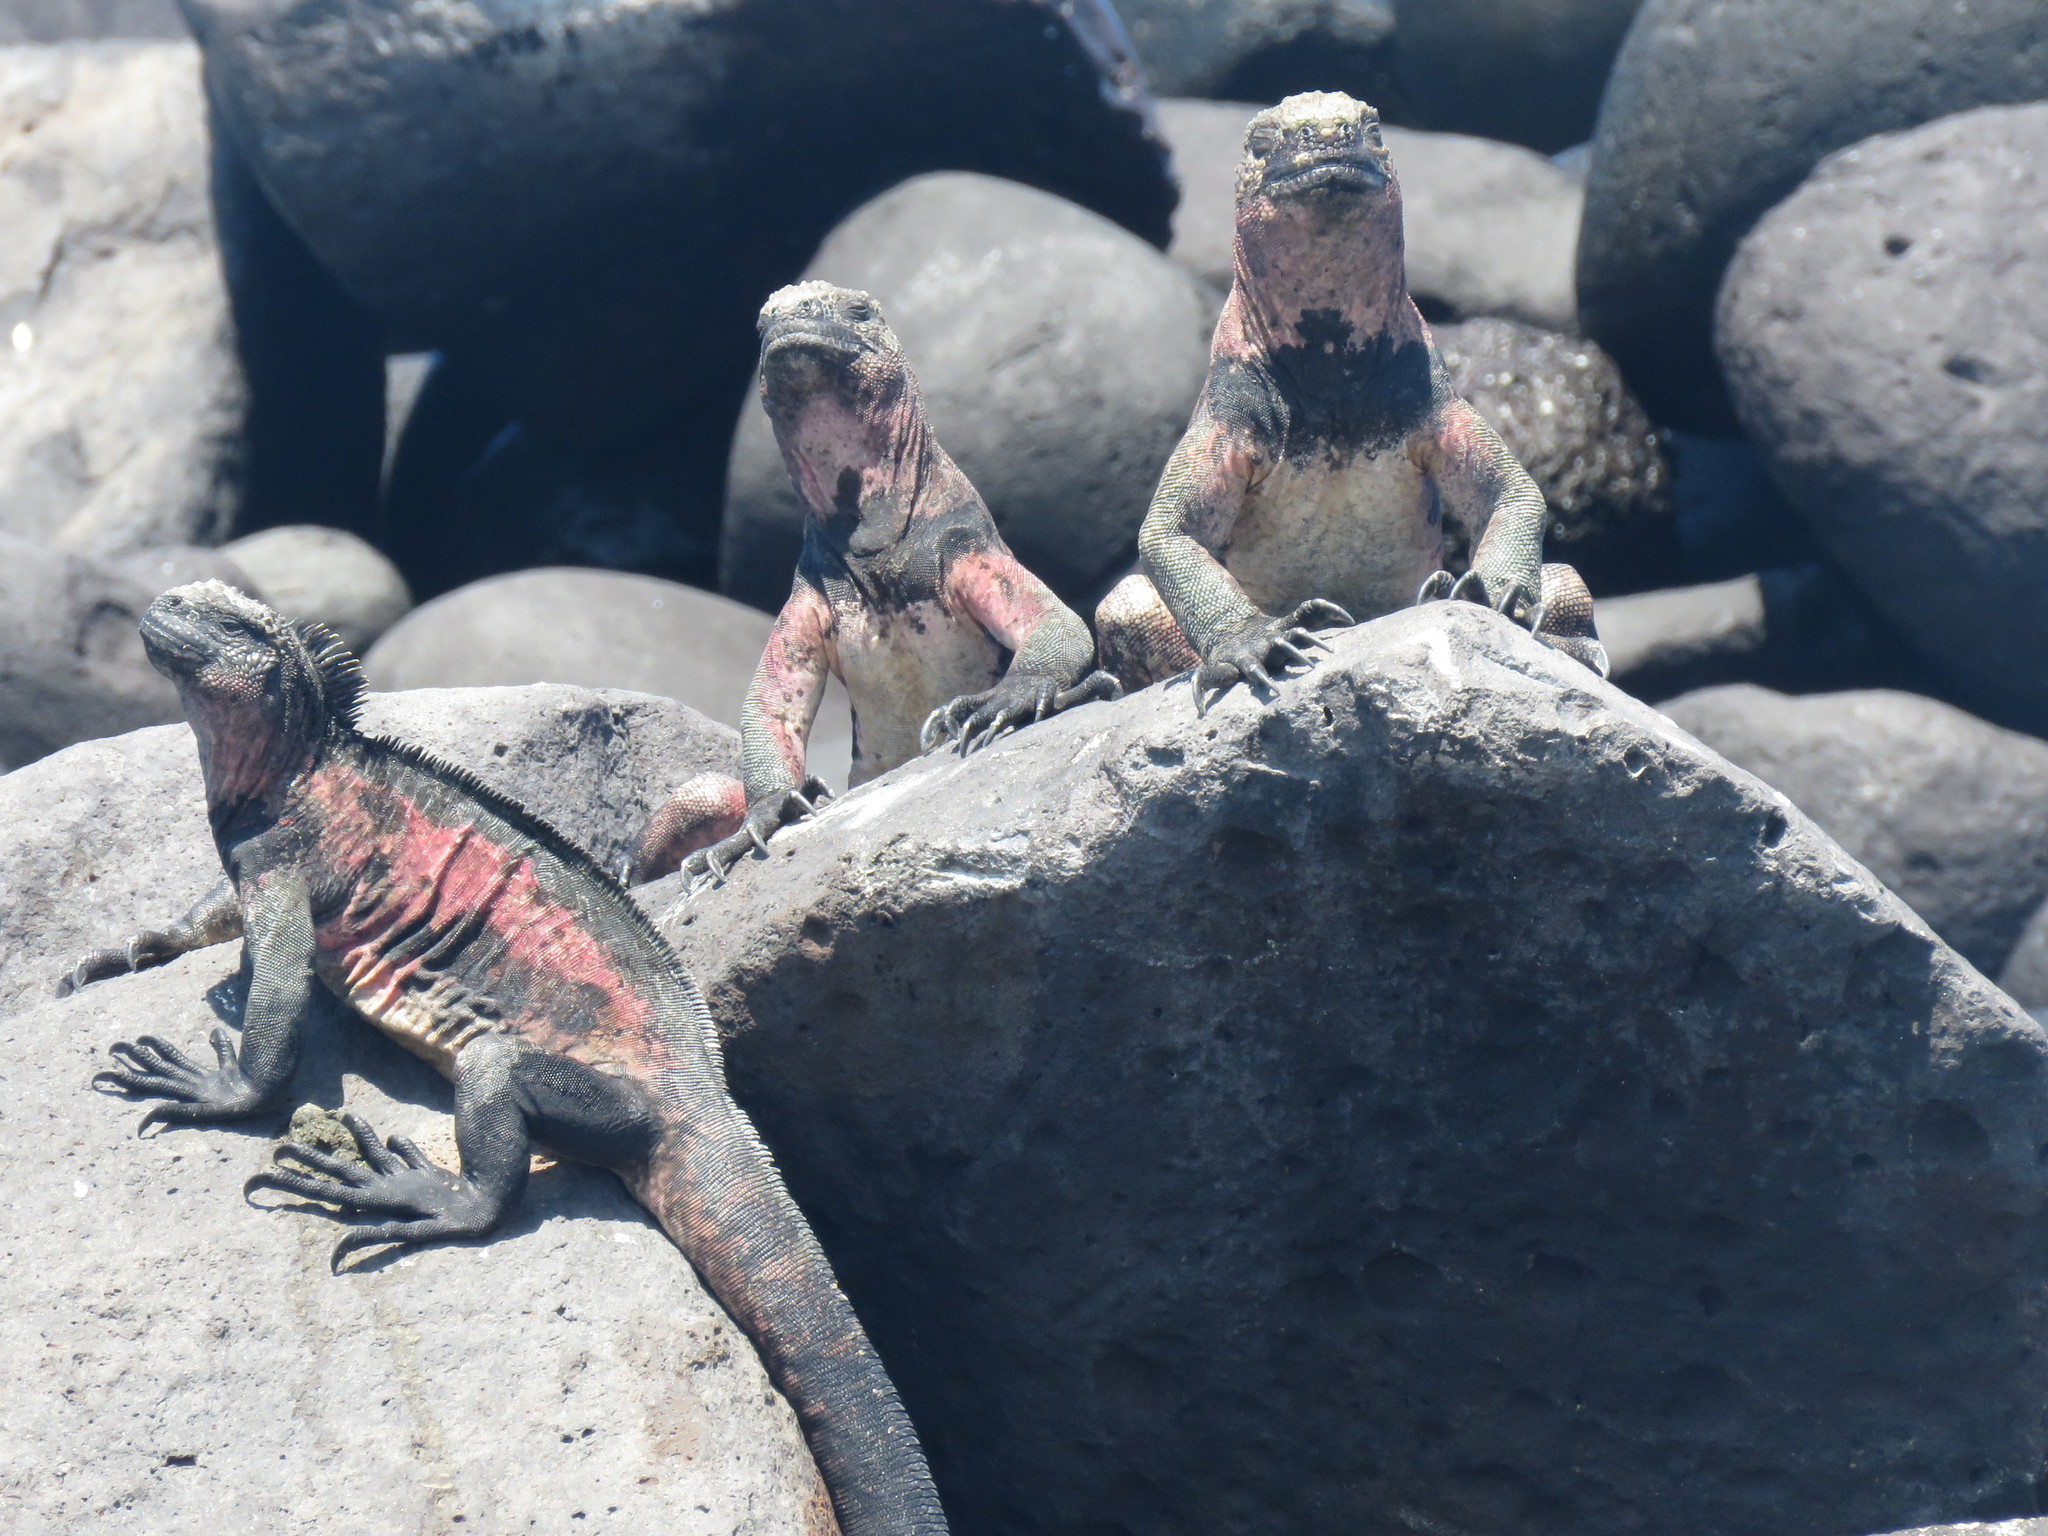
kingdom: Animalia
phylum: Chordata
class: Squamata
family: Iguanidae
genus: Amblyrhynchus
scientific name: Amblyrhynchus cristatus
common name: Marine iguana
